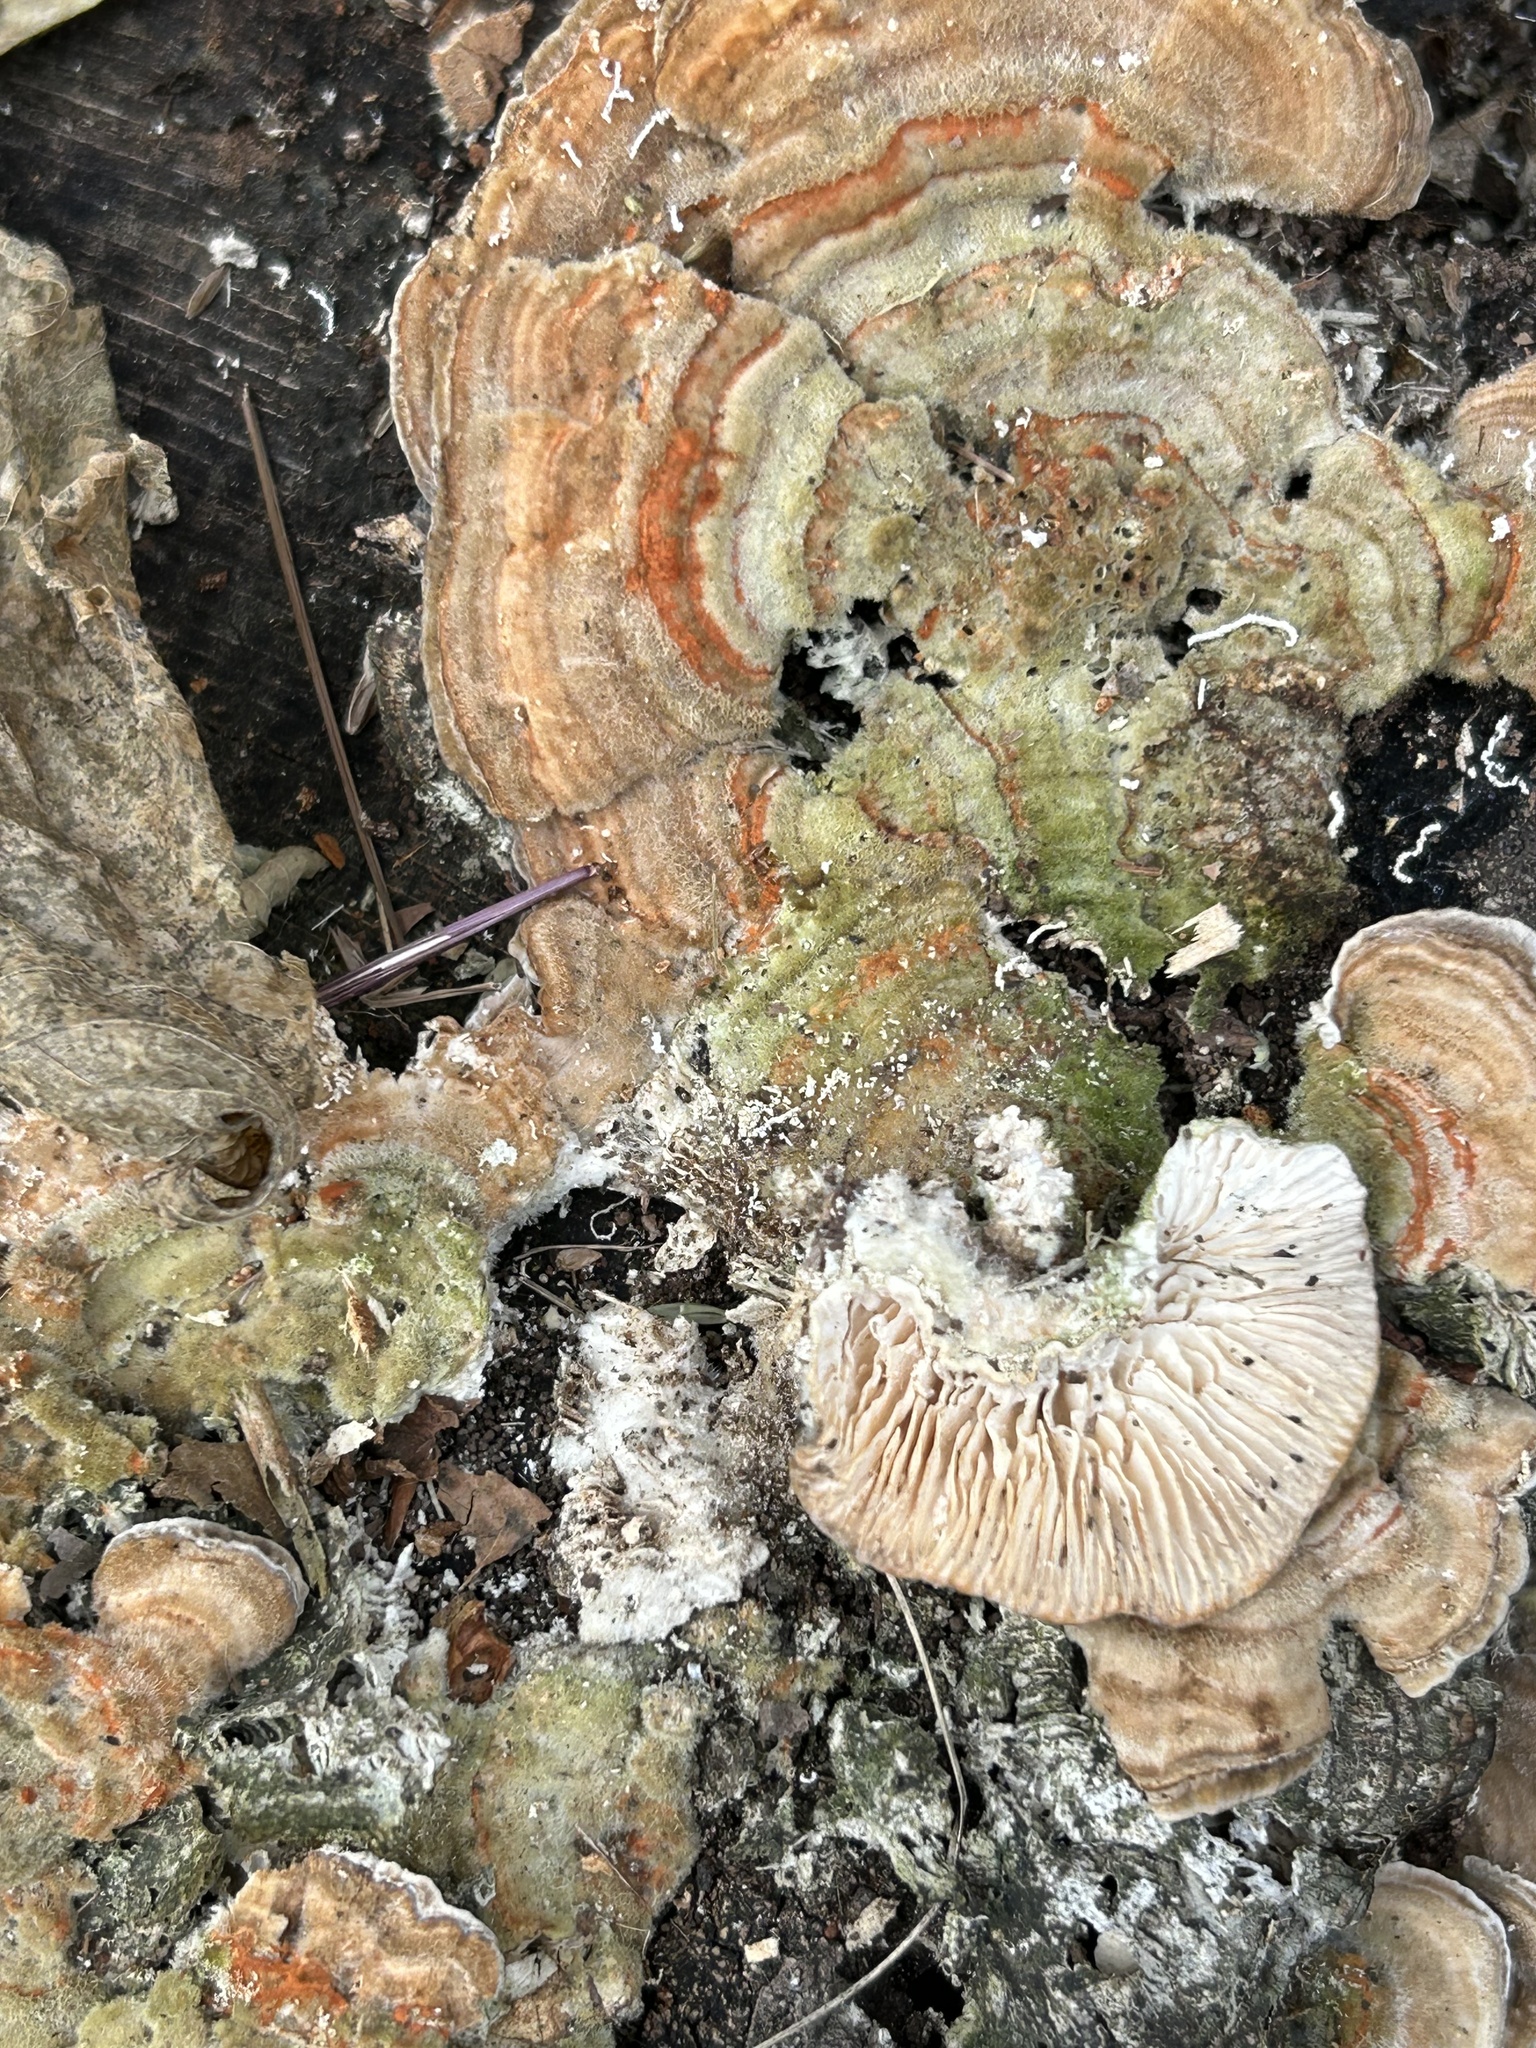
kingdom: Fungi
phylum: Basidiomycota
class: Agaricomycetes
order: Polyporales
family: Polyporaceae
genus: Lenzites
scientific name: Lenzites betulinus
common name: Birch mazegill
